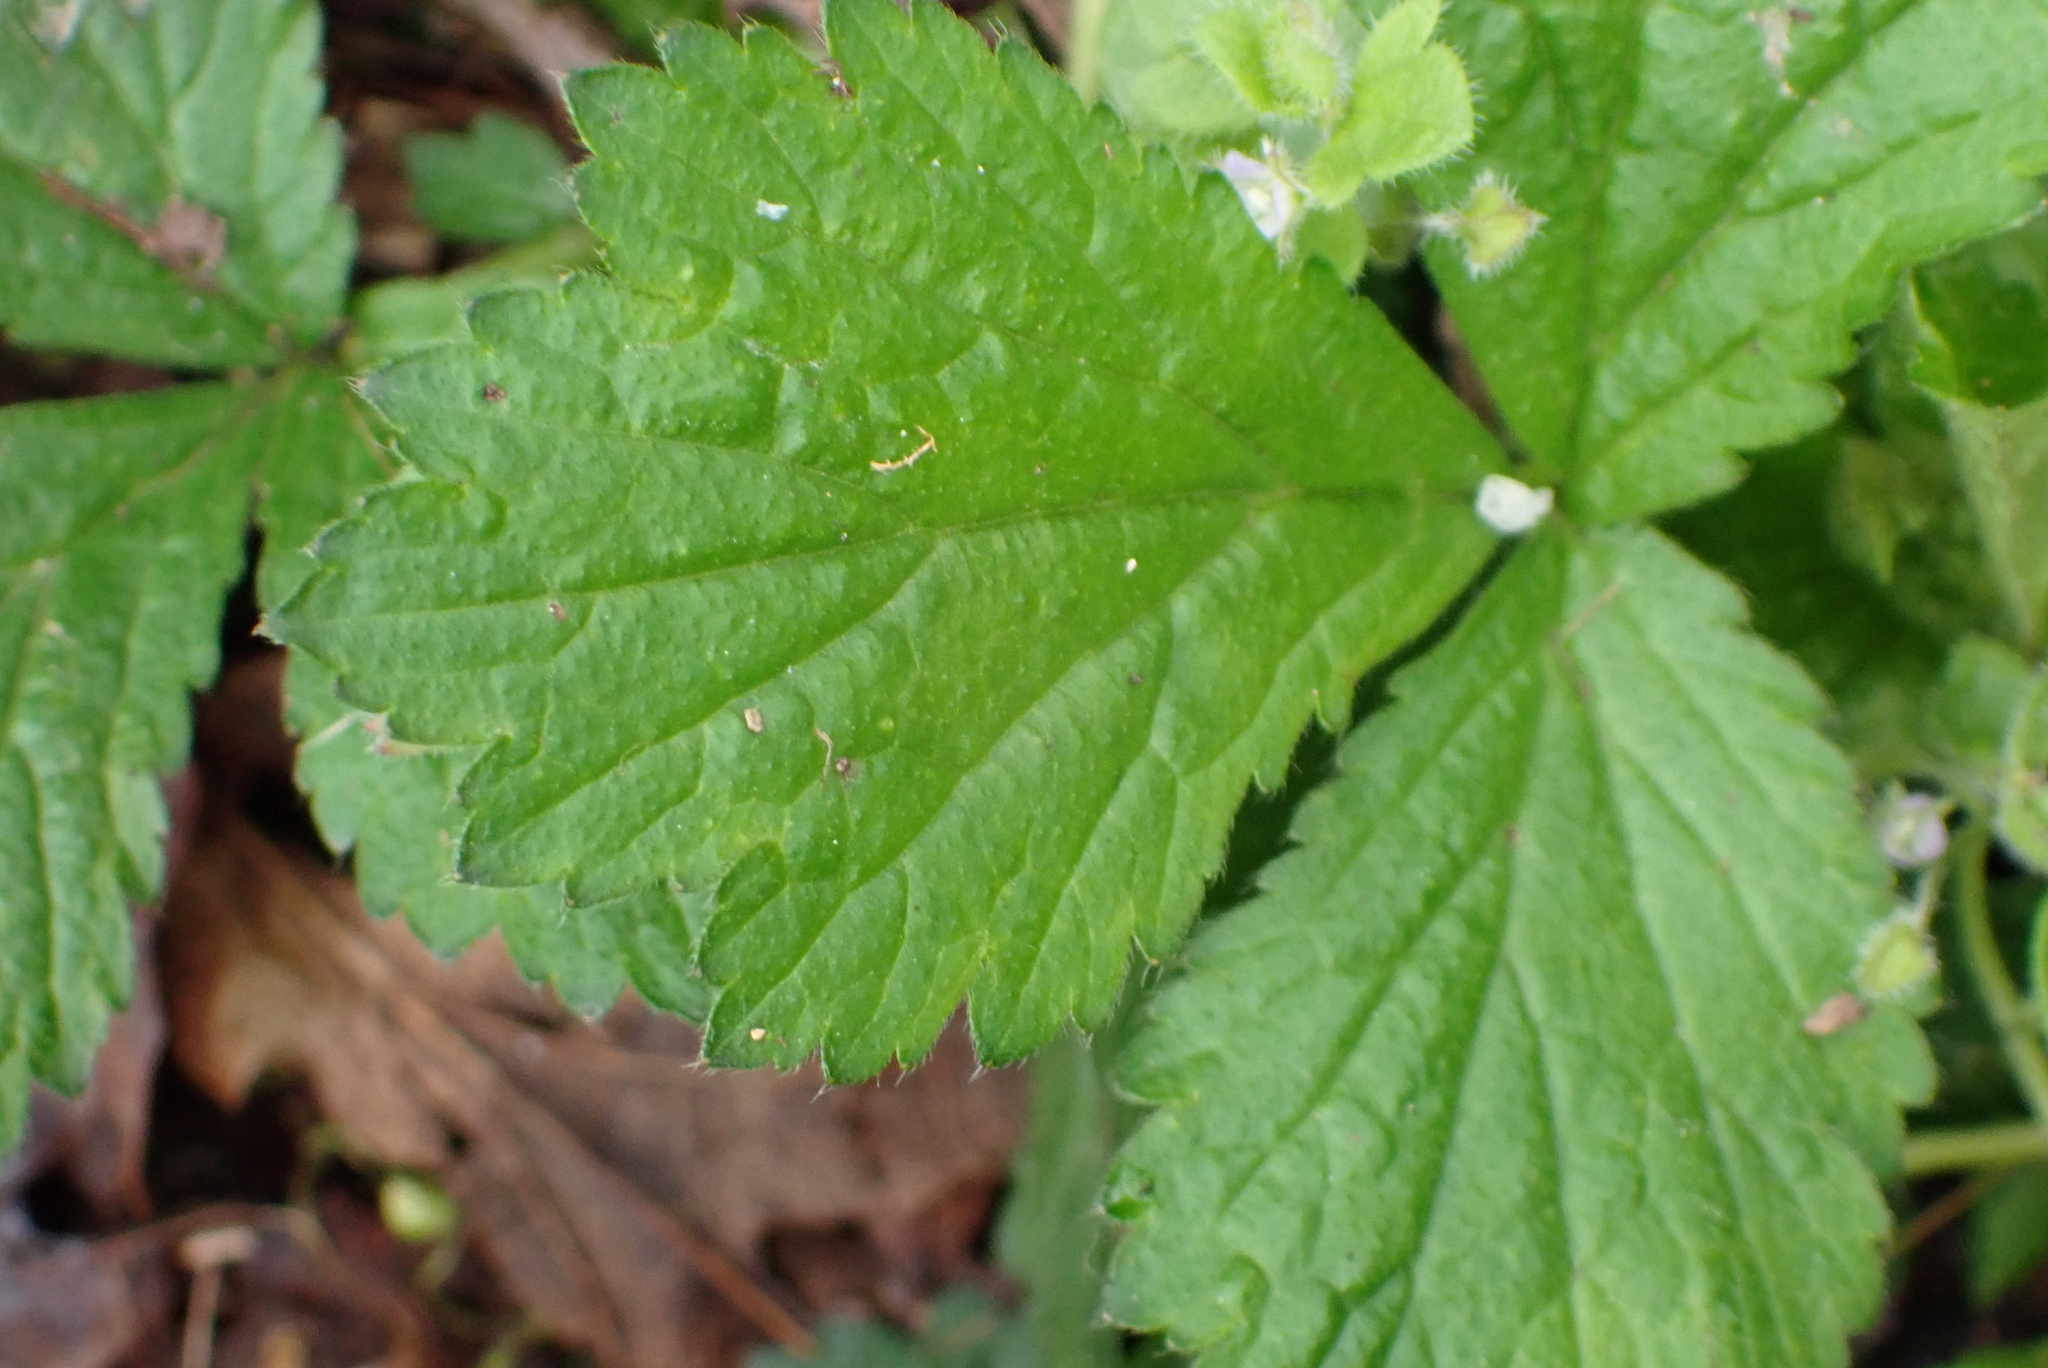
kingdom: Plantae
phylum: Tracheophyta
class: Magnoliopsida
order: Rosales
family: Rosaceae
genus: Geum
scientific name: Geum urbanum
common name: Wood avens
